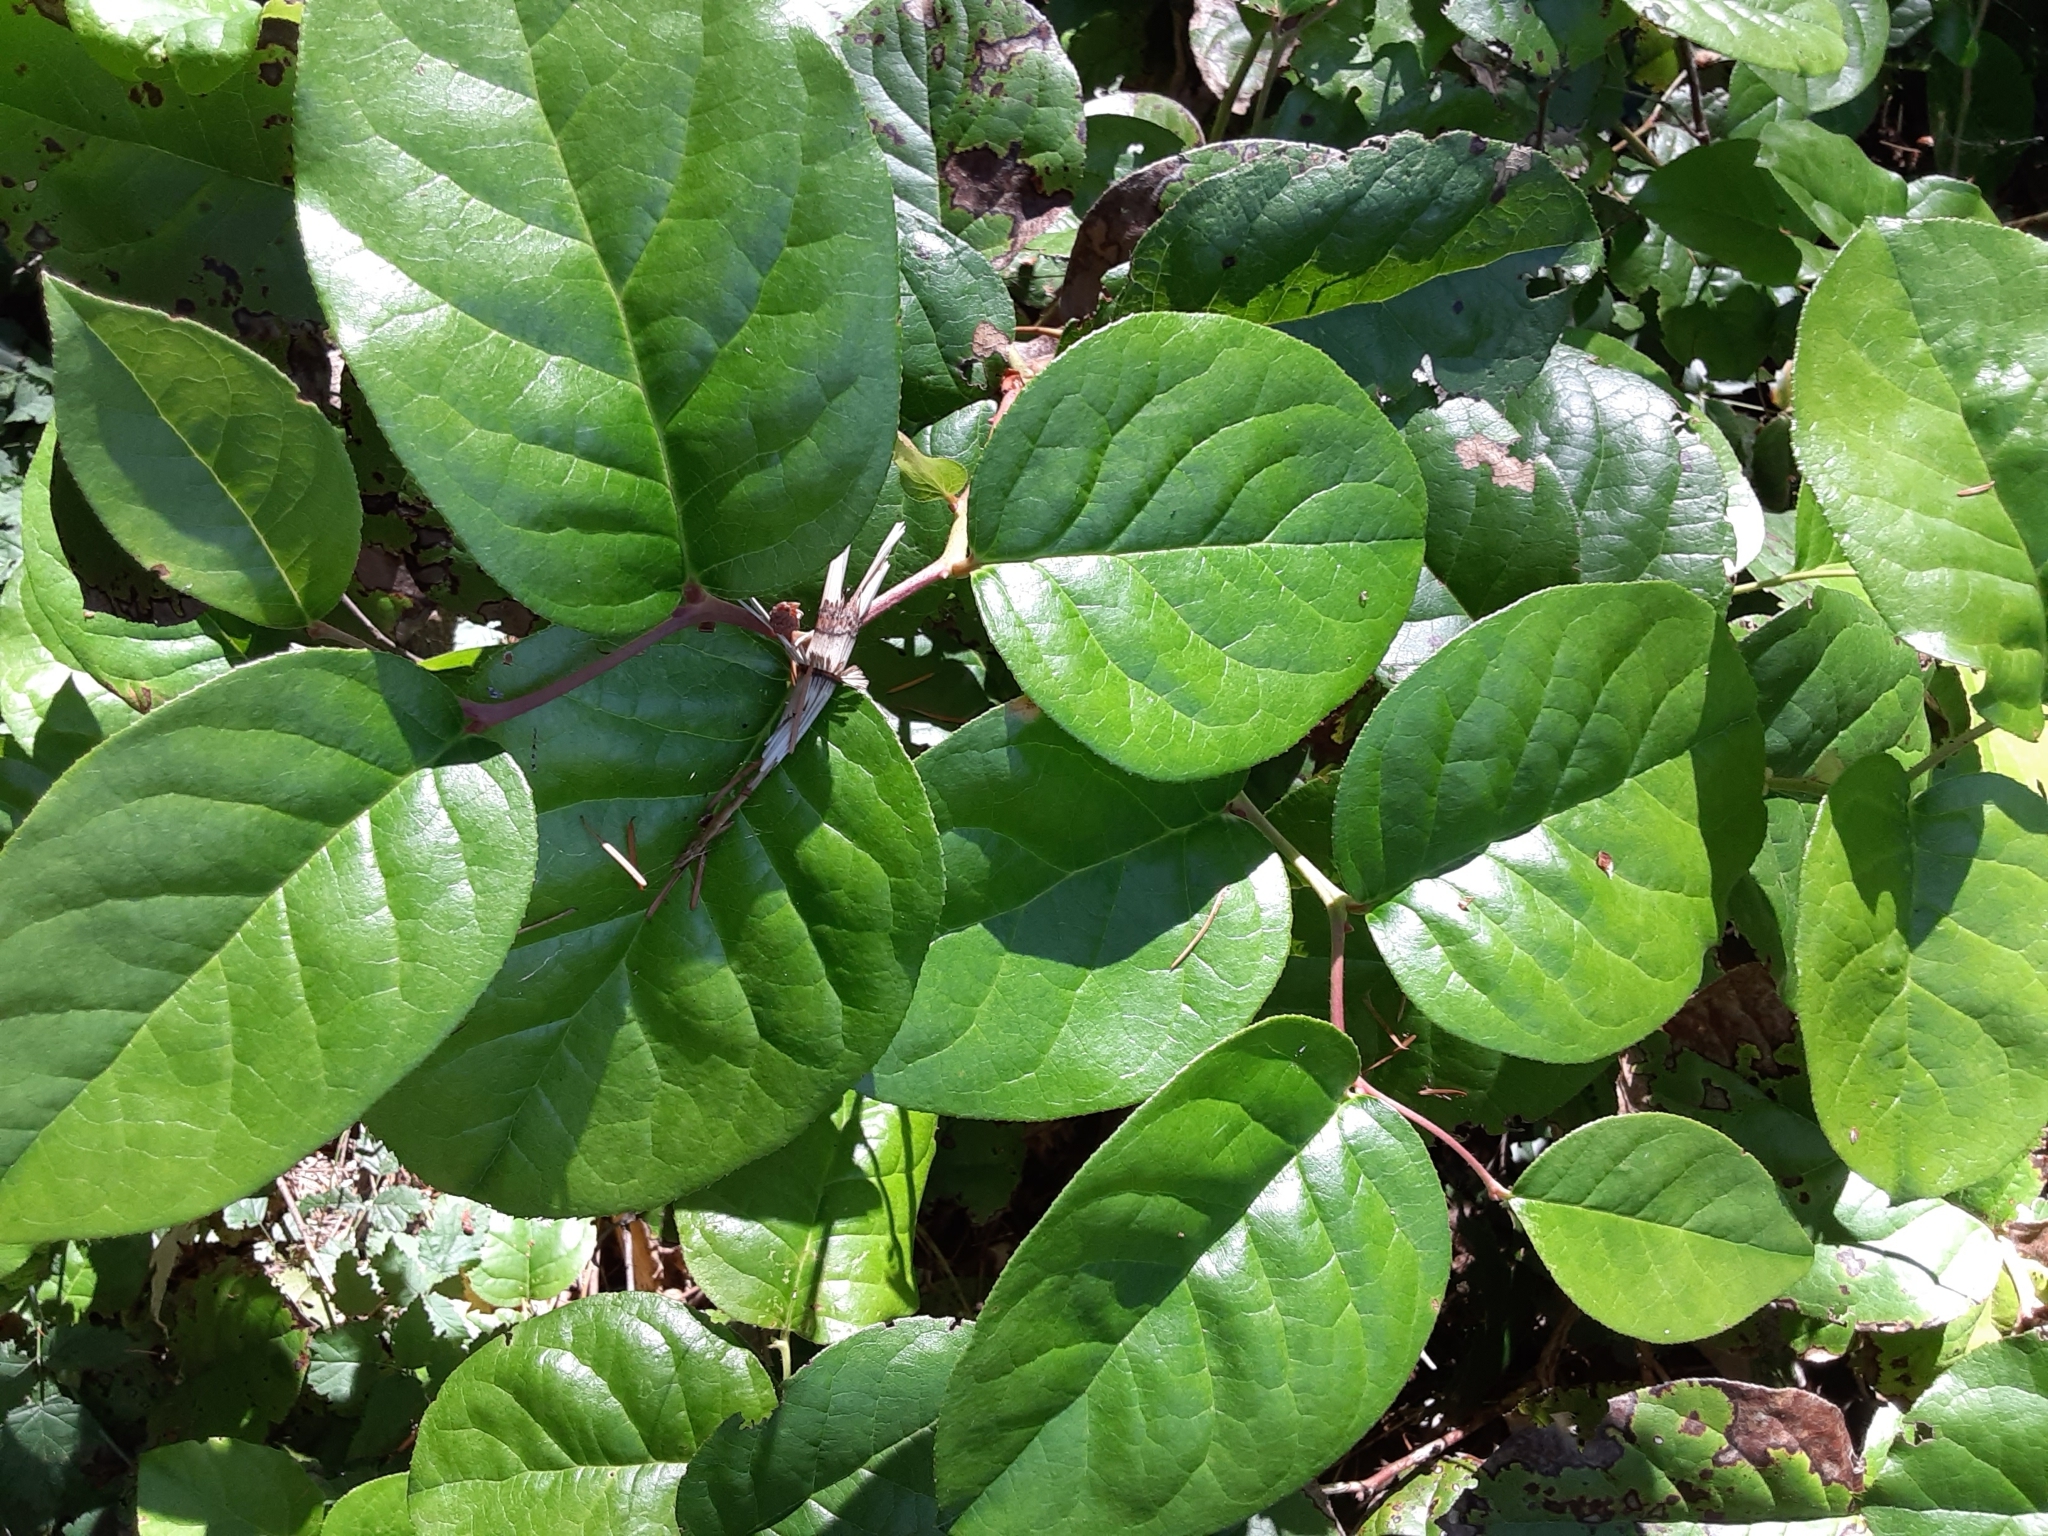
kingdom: Plantae
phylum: Tracheophyta
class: Magnoliopsida
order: Ericales
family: Ericaceae
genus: Gaultheria
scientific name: Gaultheria shallon
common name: Shallon
